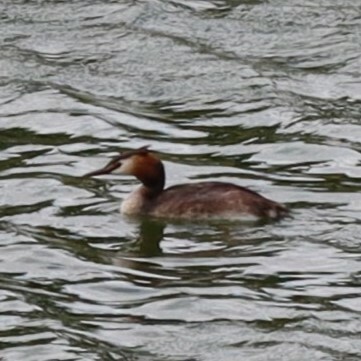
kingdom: Animalia
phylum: Chordata
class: Aves
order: Podicipediformes
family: Podicipedidae
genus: Podiceps
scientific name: Podiceps cristatus
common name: Great crested grebe
